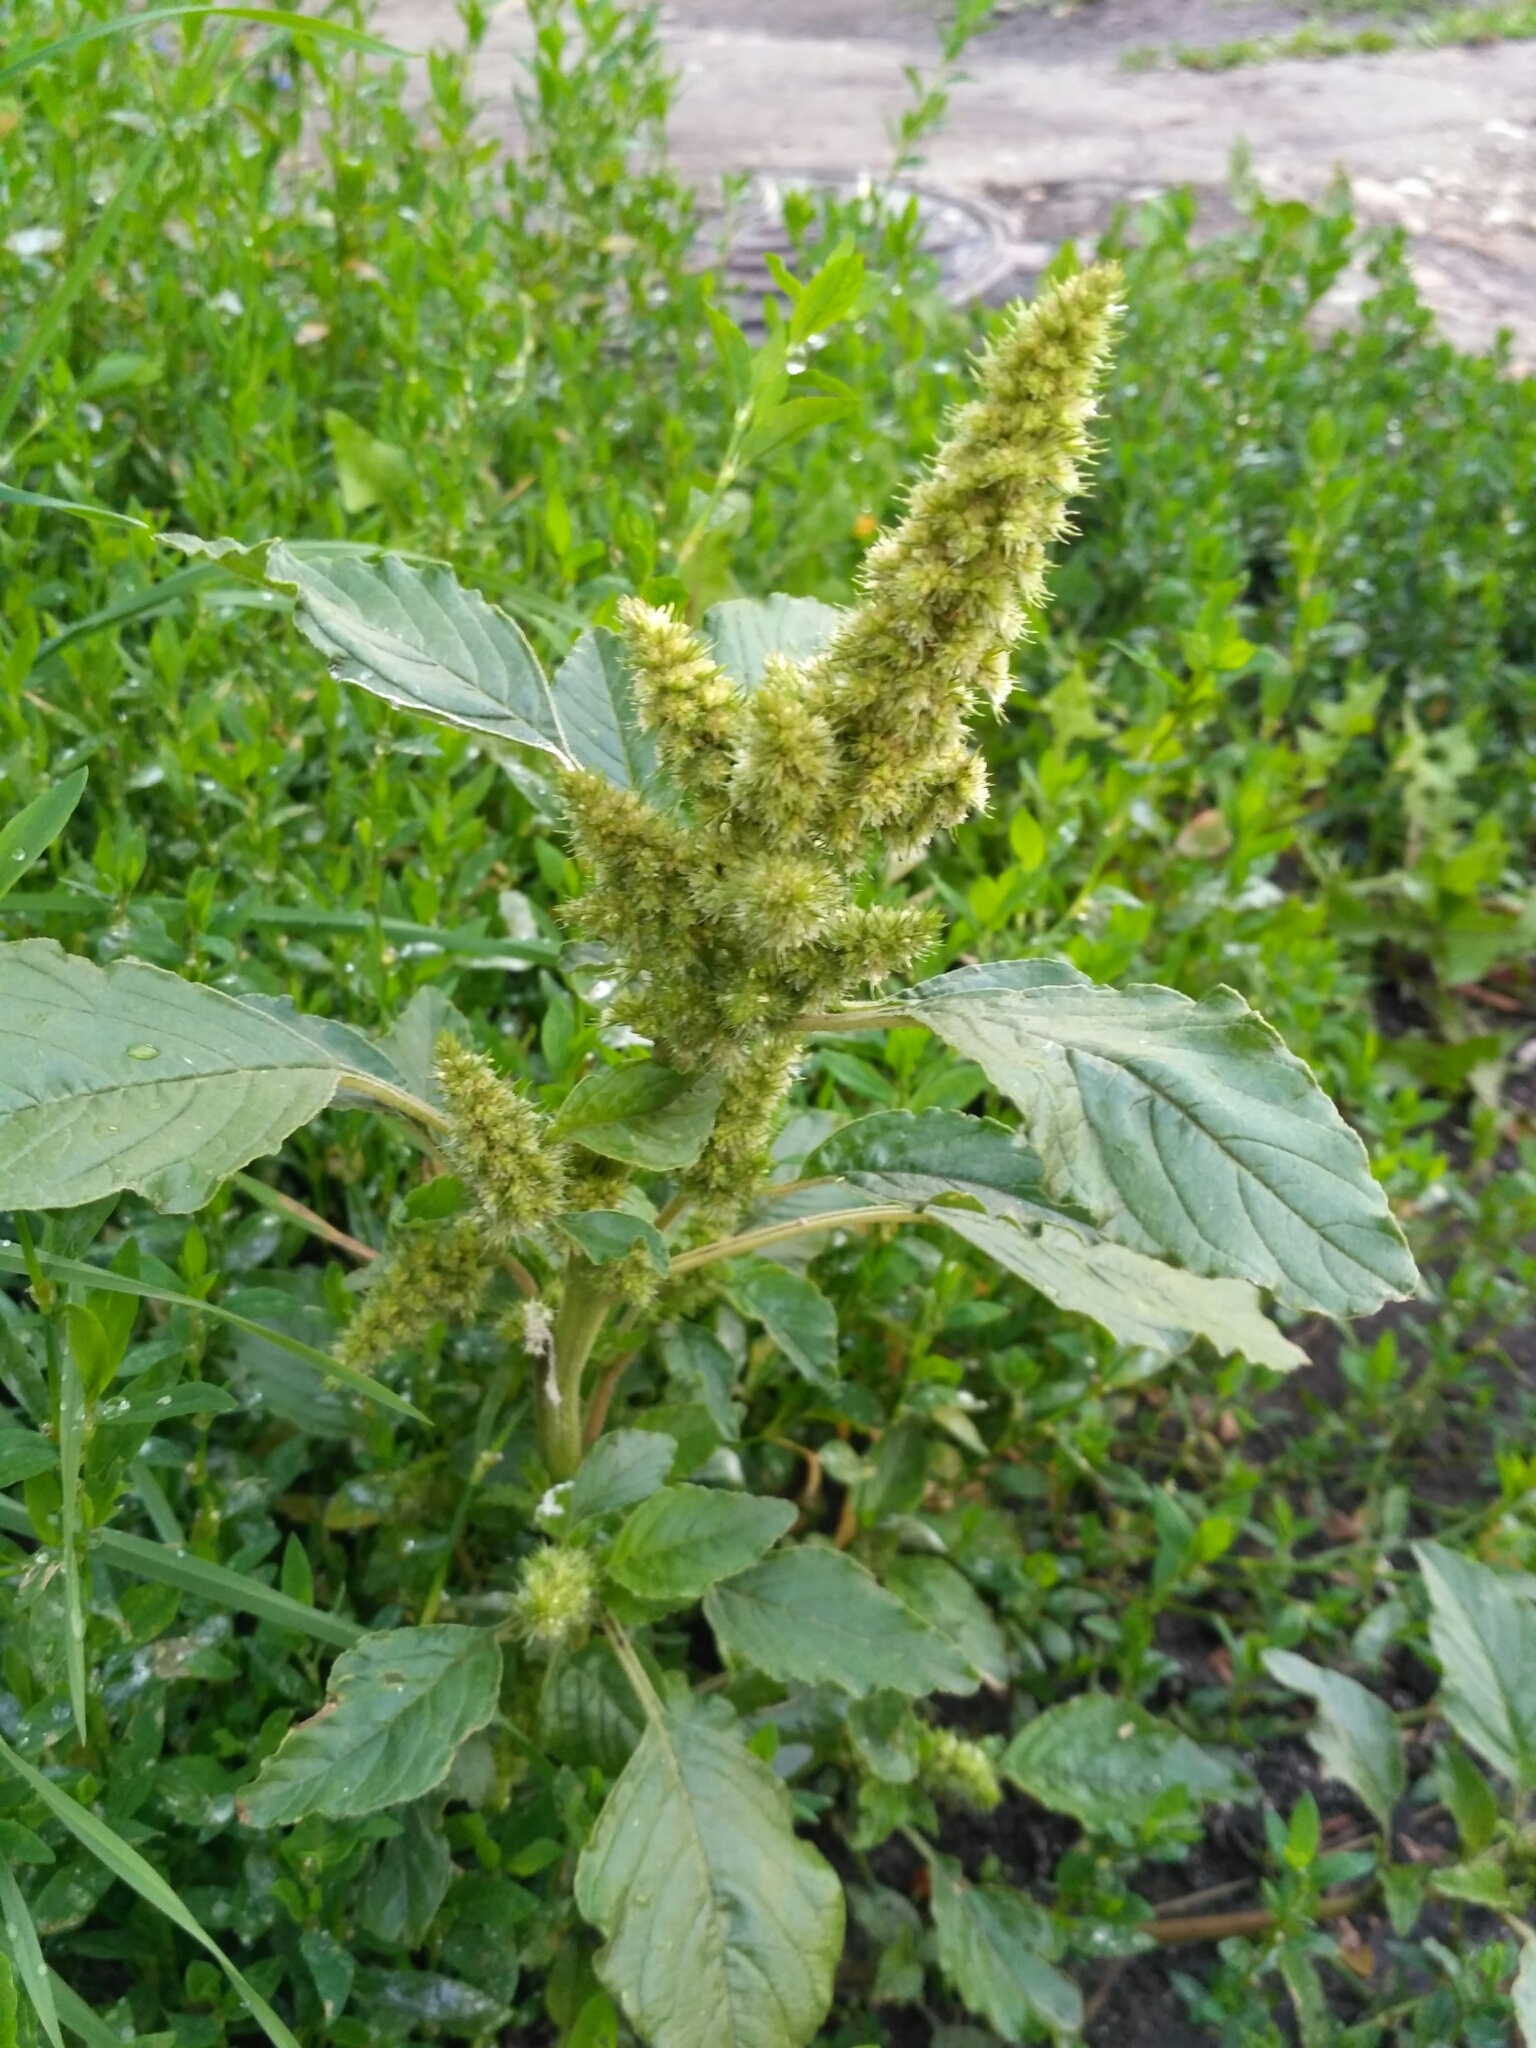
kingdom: Plantae
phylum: Tracheophyta
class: Magnoliopsida
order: Caryophyllales
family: Amaranthaceae
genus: Amaranthus
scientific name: Amaranthus retroflexus
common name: Redroot amaranth
